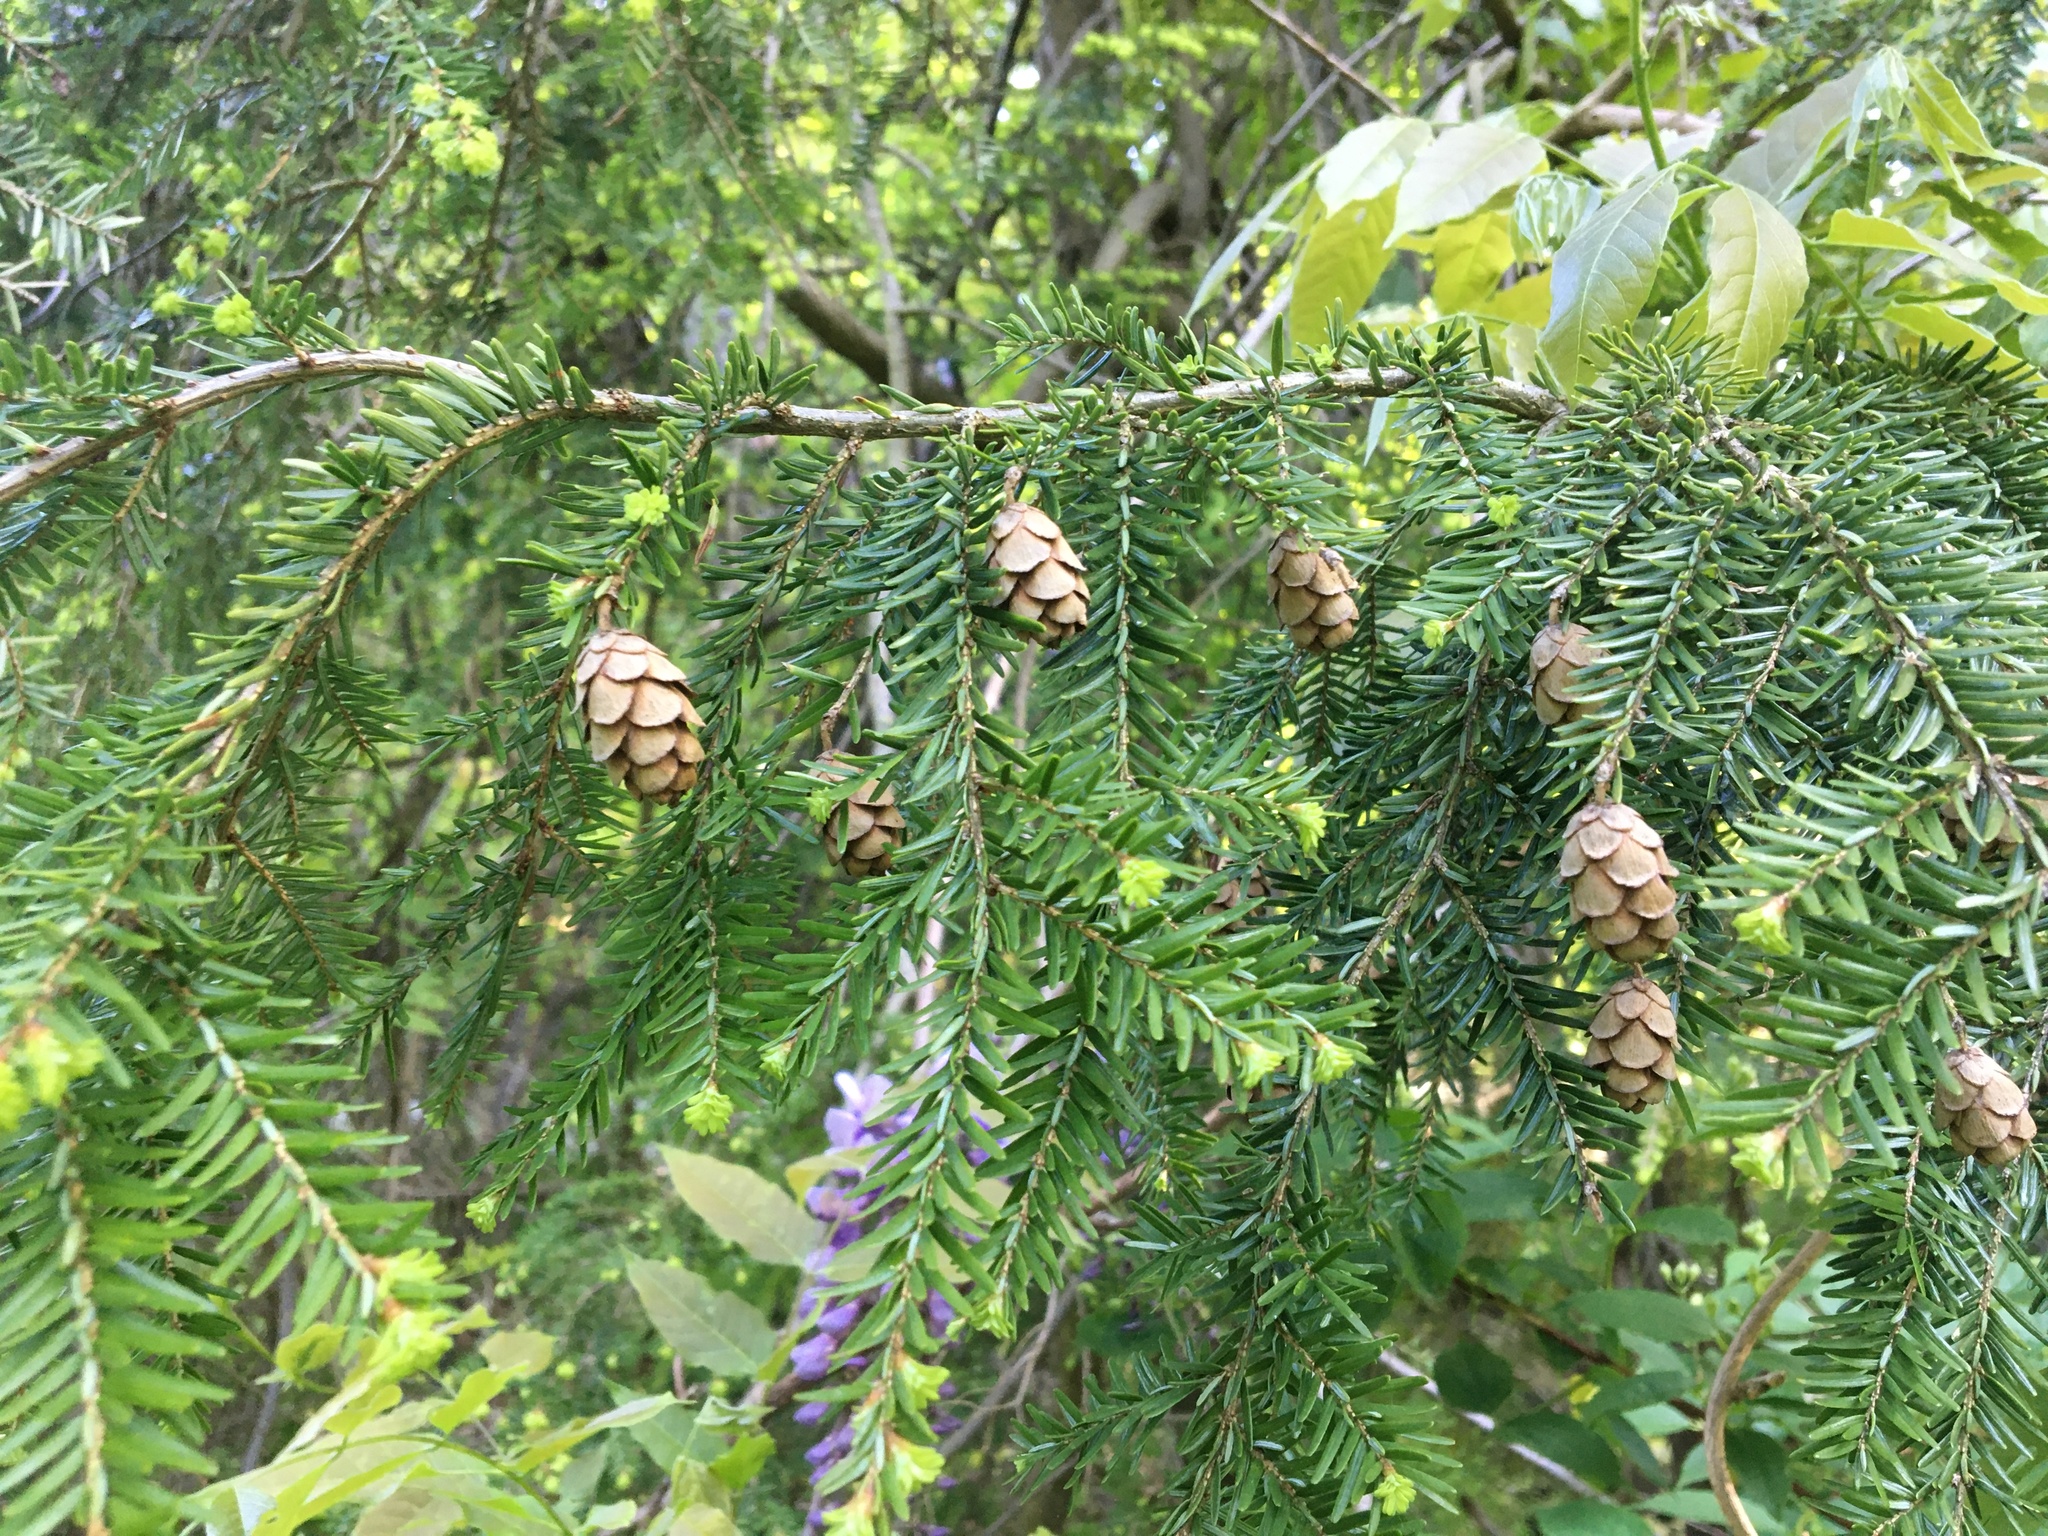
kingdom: Plantae
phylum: Tracheophyta
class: Pinopsida
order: Pinales
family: Pinaceae
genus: Tsuga
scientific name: Tsuga canadensis
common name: Eastern hemlock
